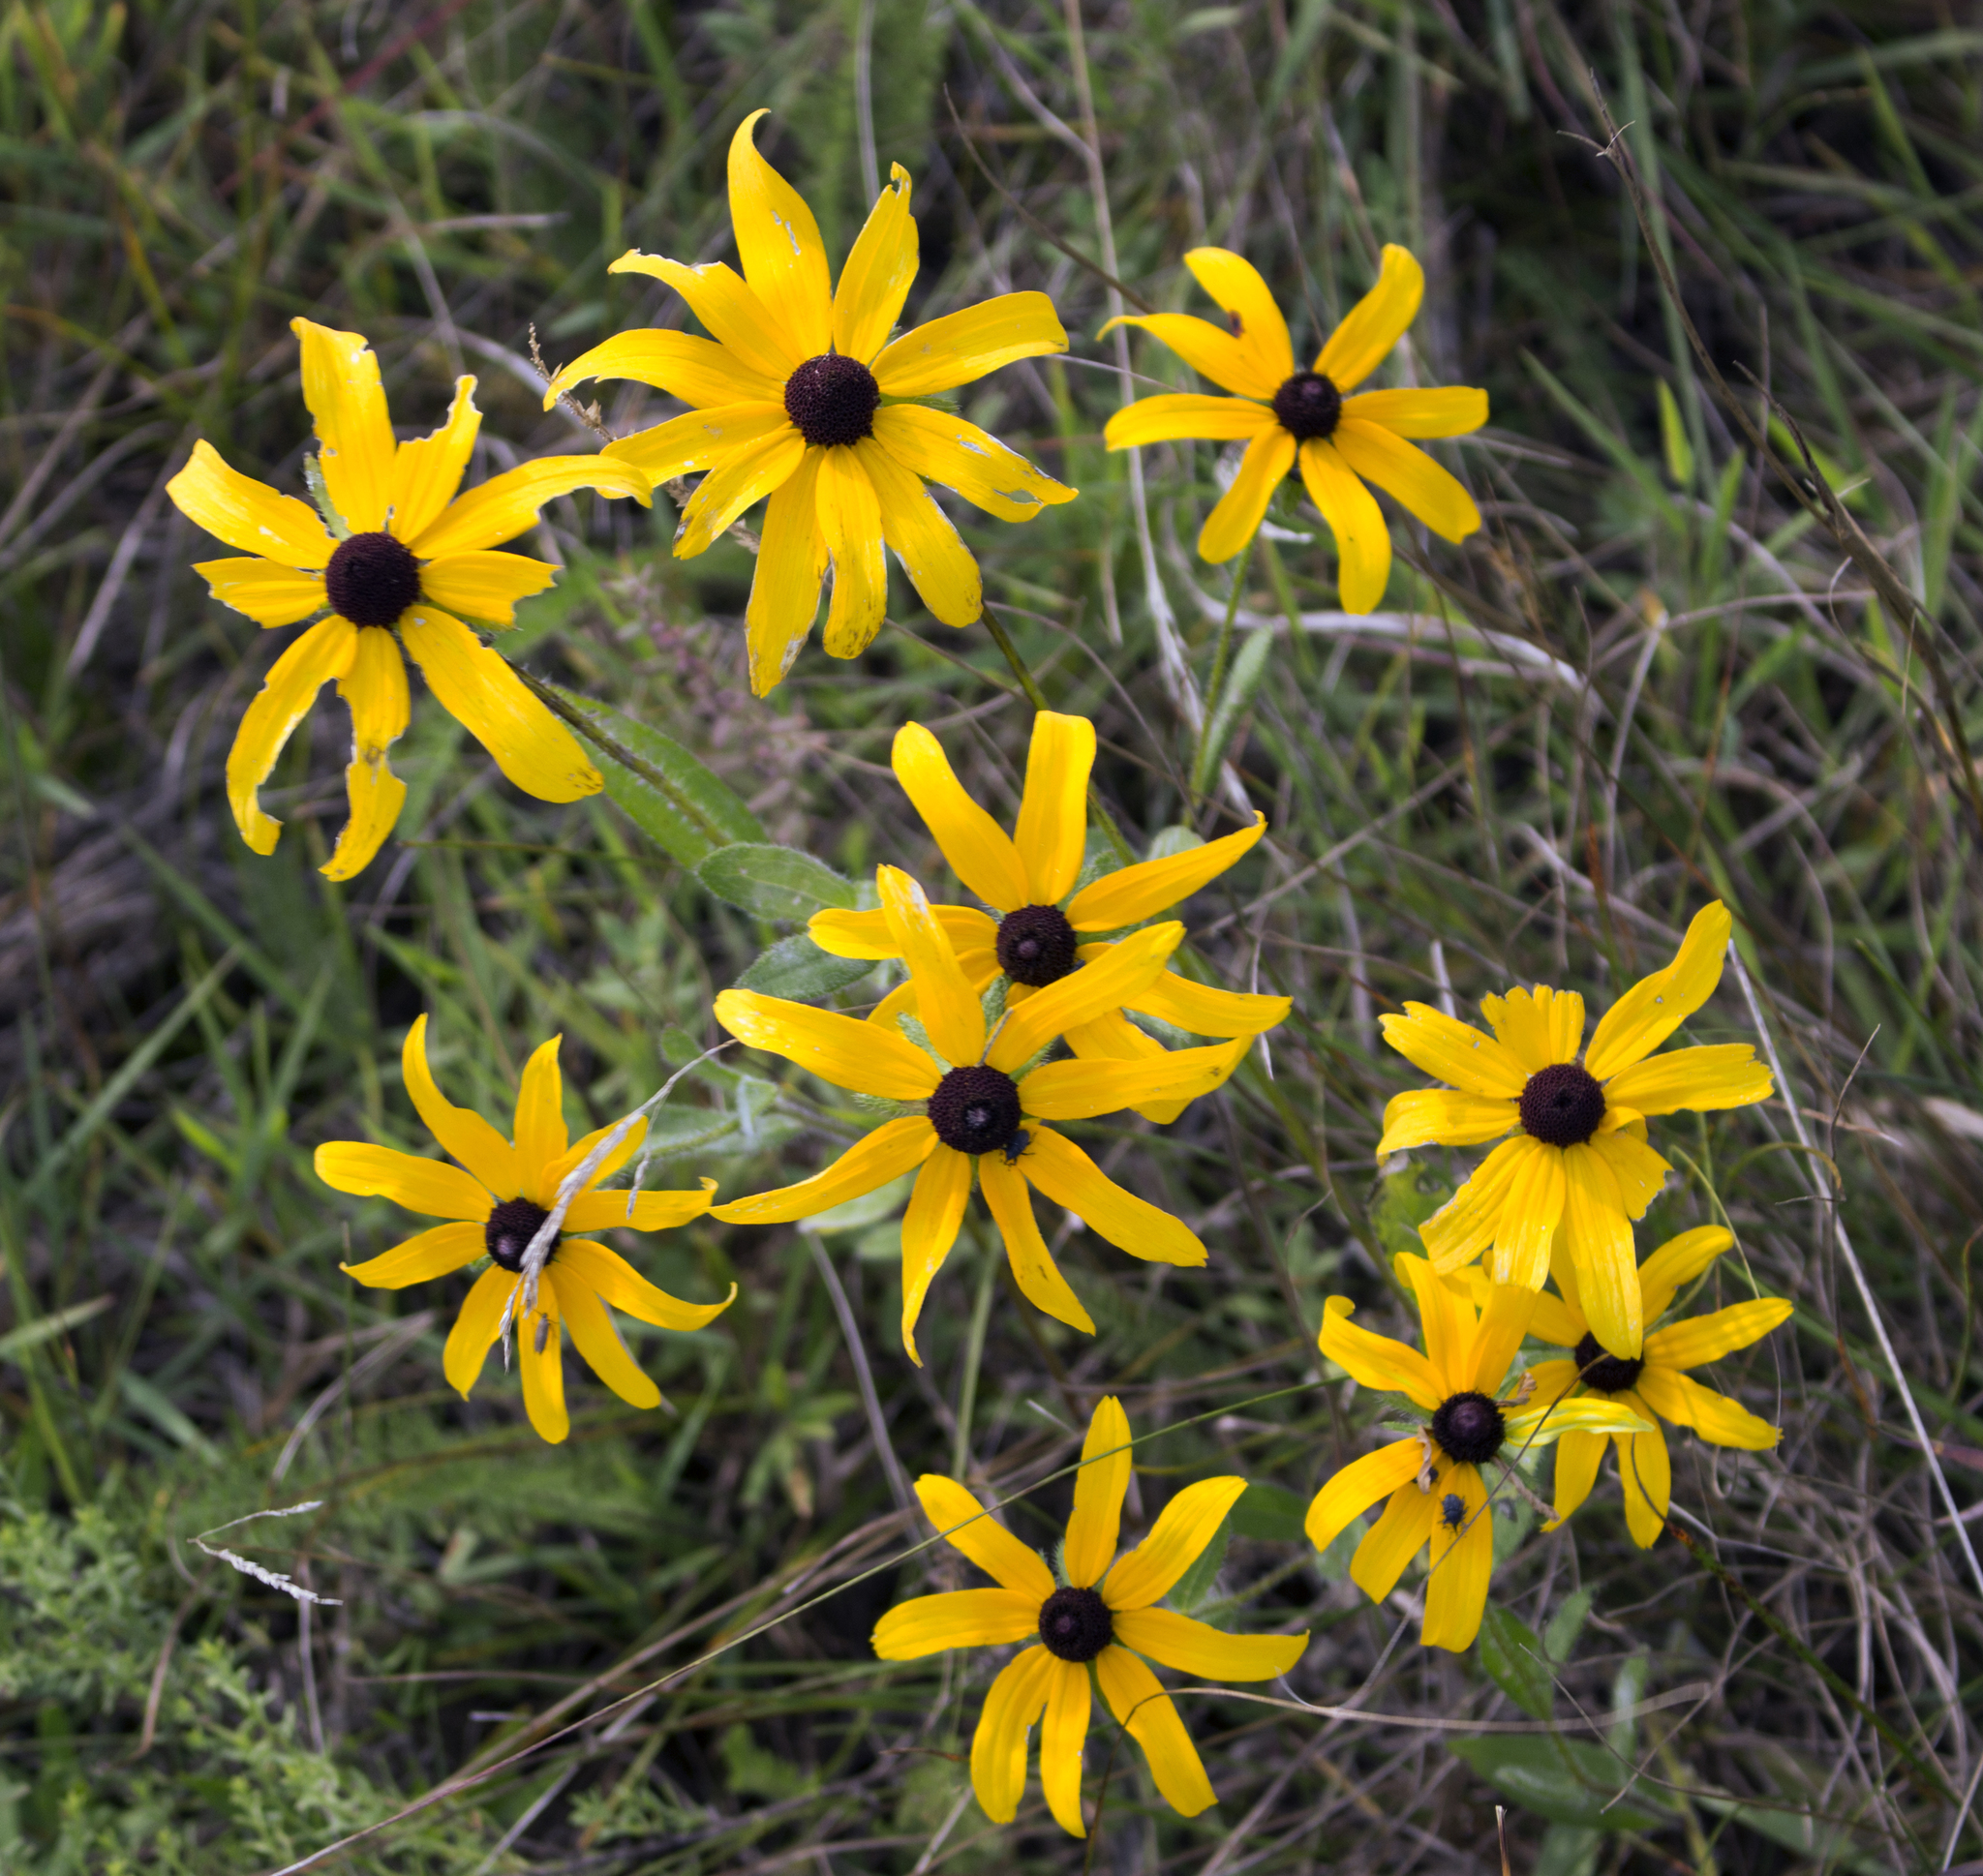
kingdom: Plantae
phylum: Tracheophyta
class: Magnoliopsida
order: Asterales
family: Asteraceae
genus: Rudbeckia
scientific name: Rudbeckia hirta
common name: Black-eyed-susan
